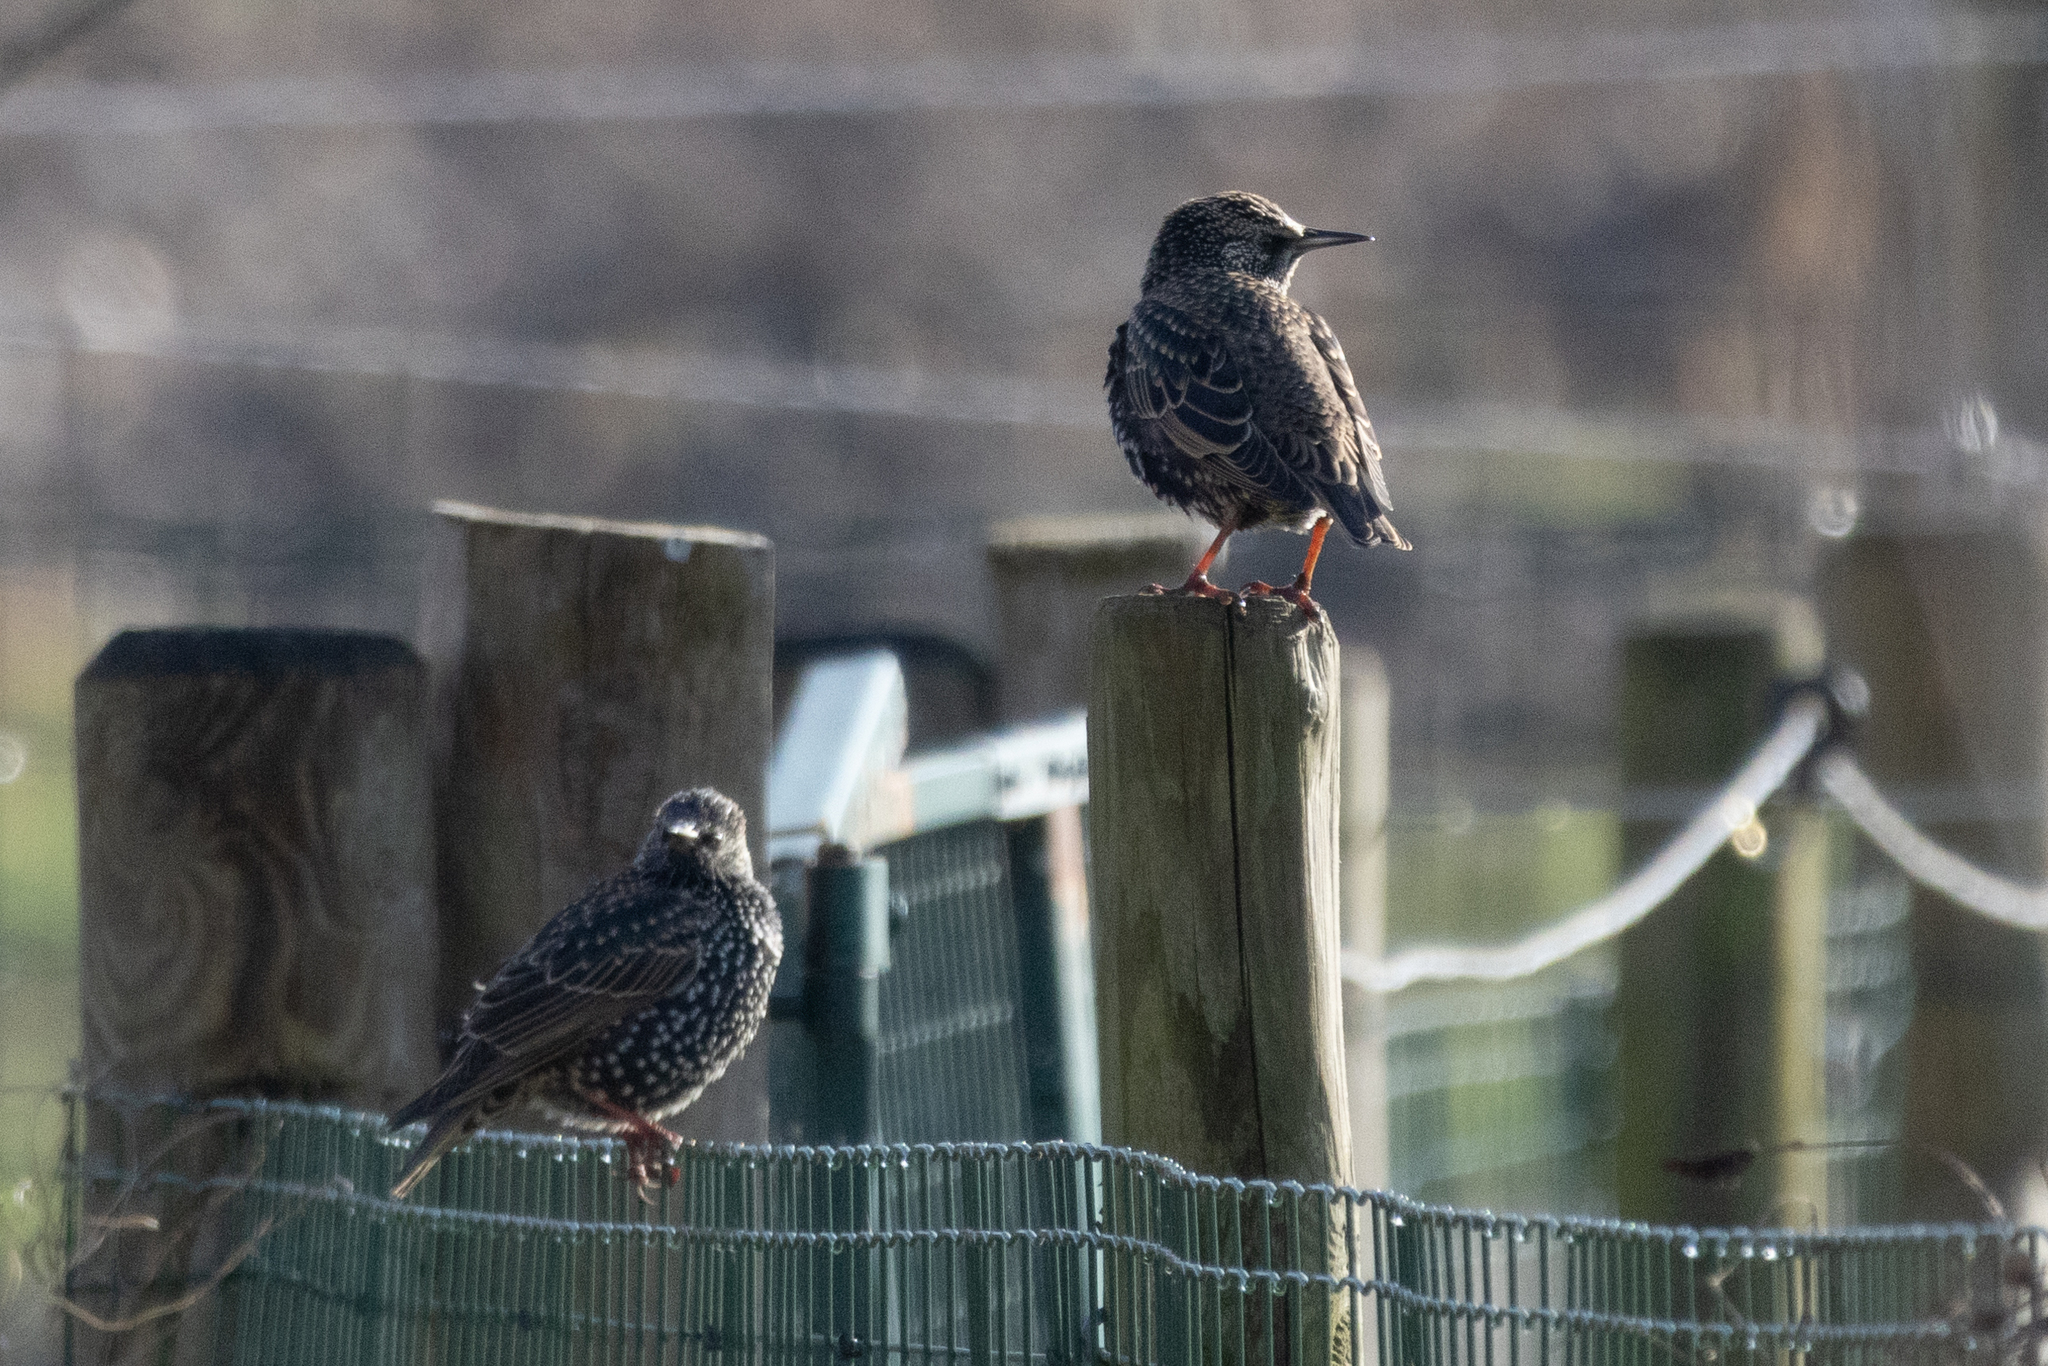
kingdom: Animalia
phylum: Chordata
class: Aves
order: Passeriformes
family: Sturnidae
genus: Sturnus
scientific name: Sturnus vulgaris
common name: Common starling
